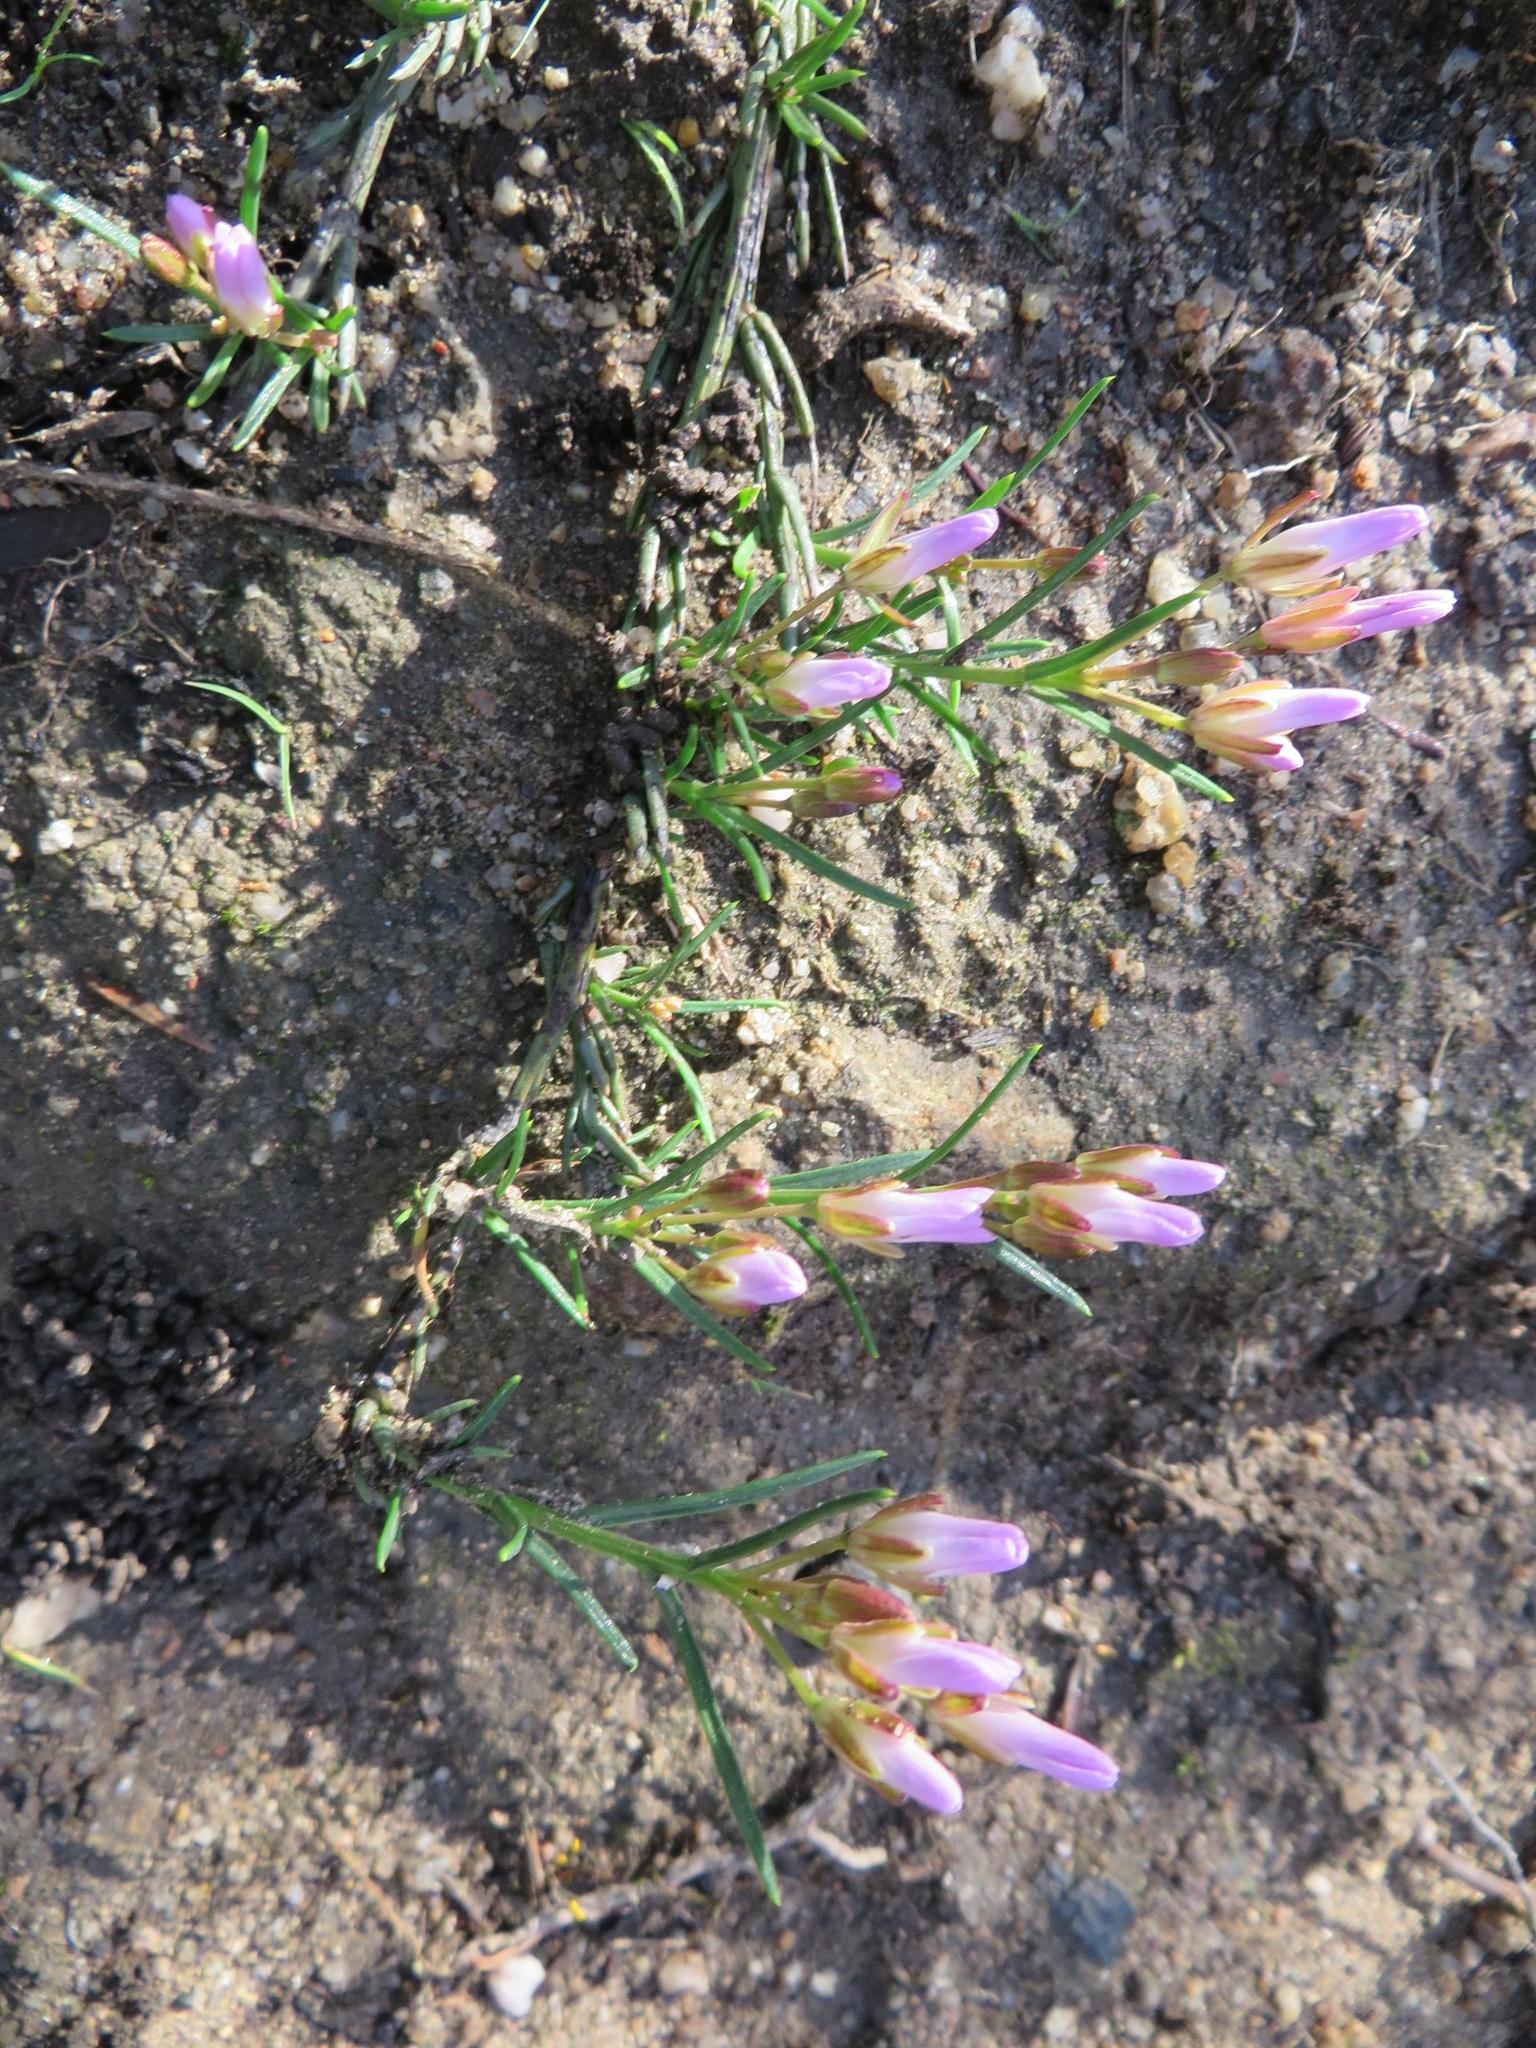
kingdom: Plantae
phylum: Tracheophyta
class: Magnoliopsida
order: Brassicales
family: Brassicaceae
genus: Heliophila
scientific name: Heliophila scoparia
